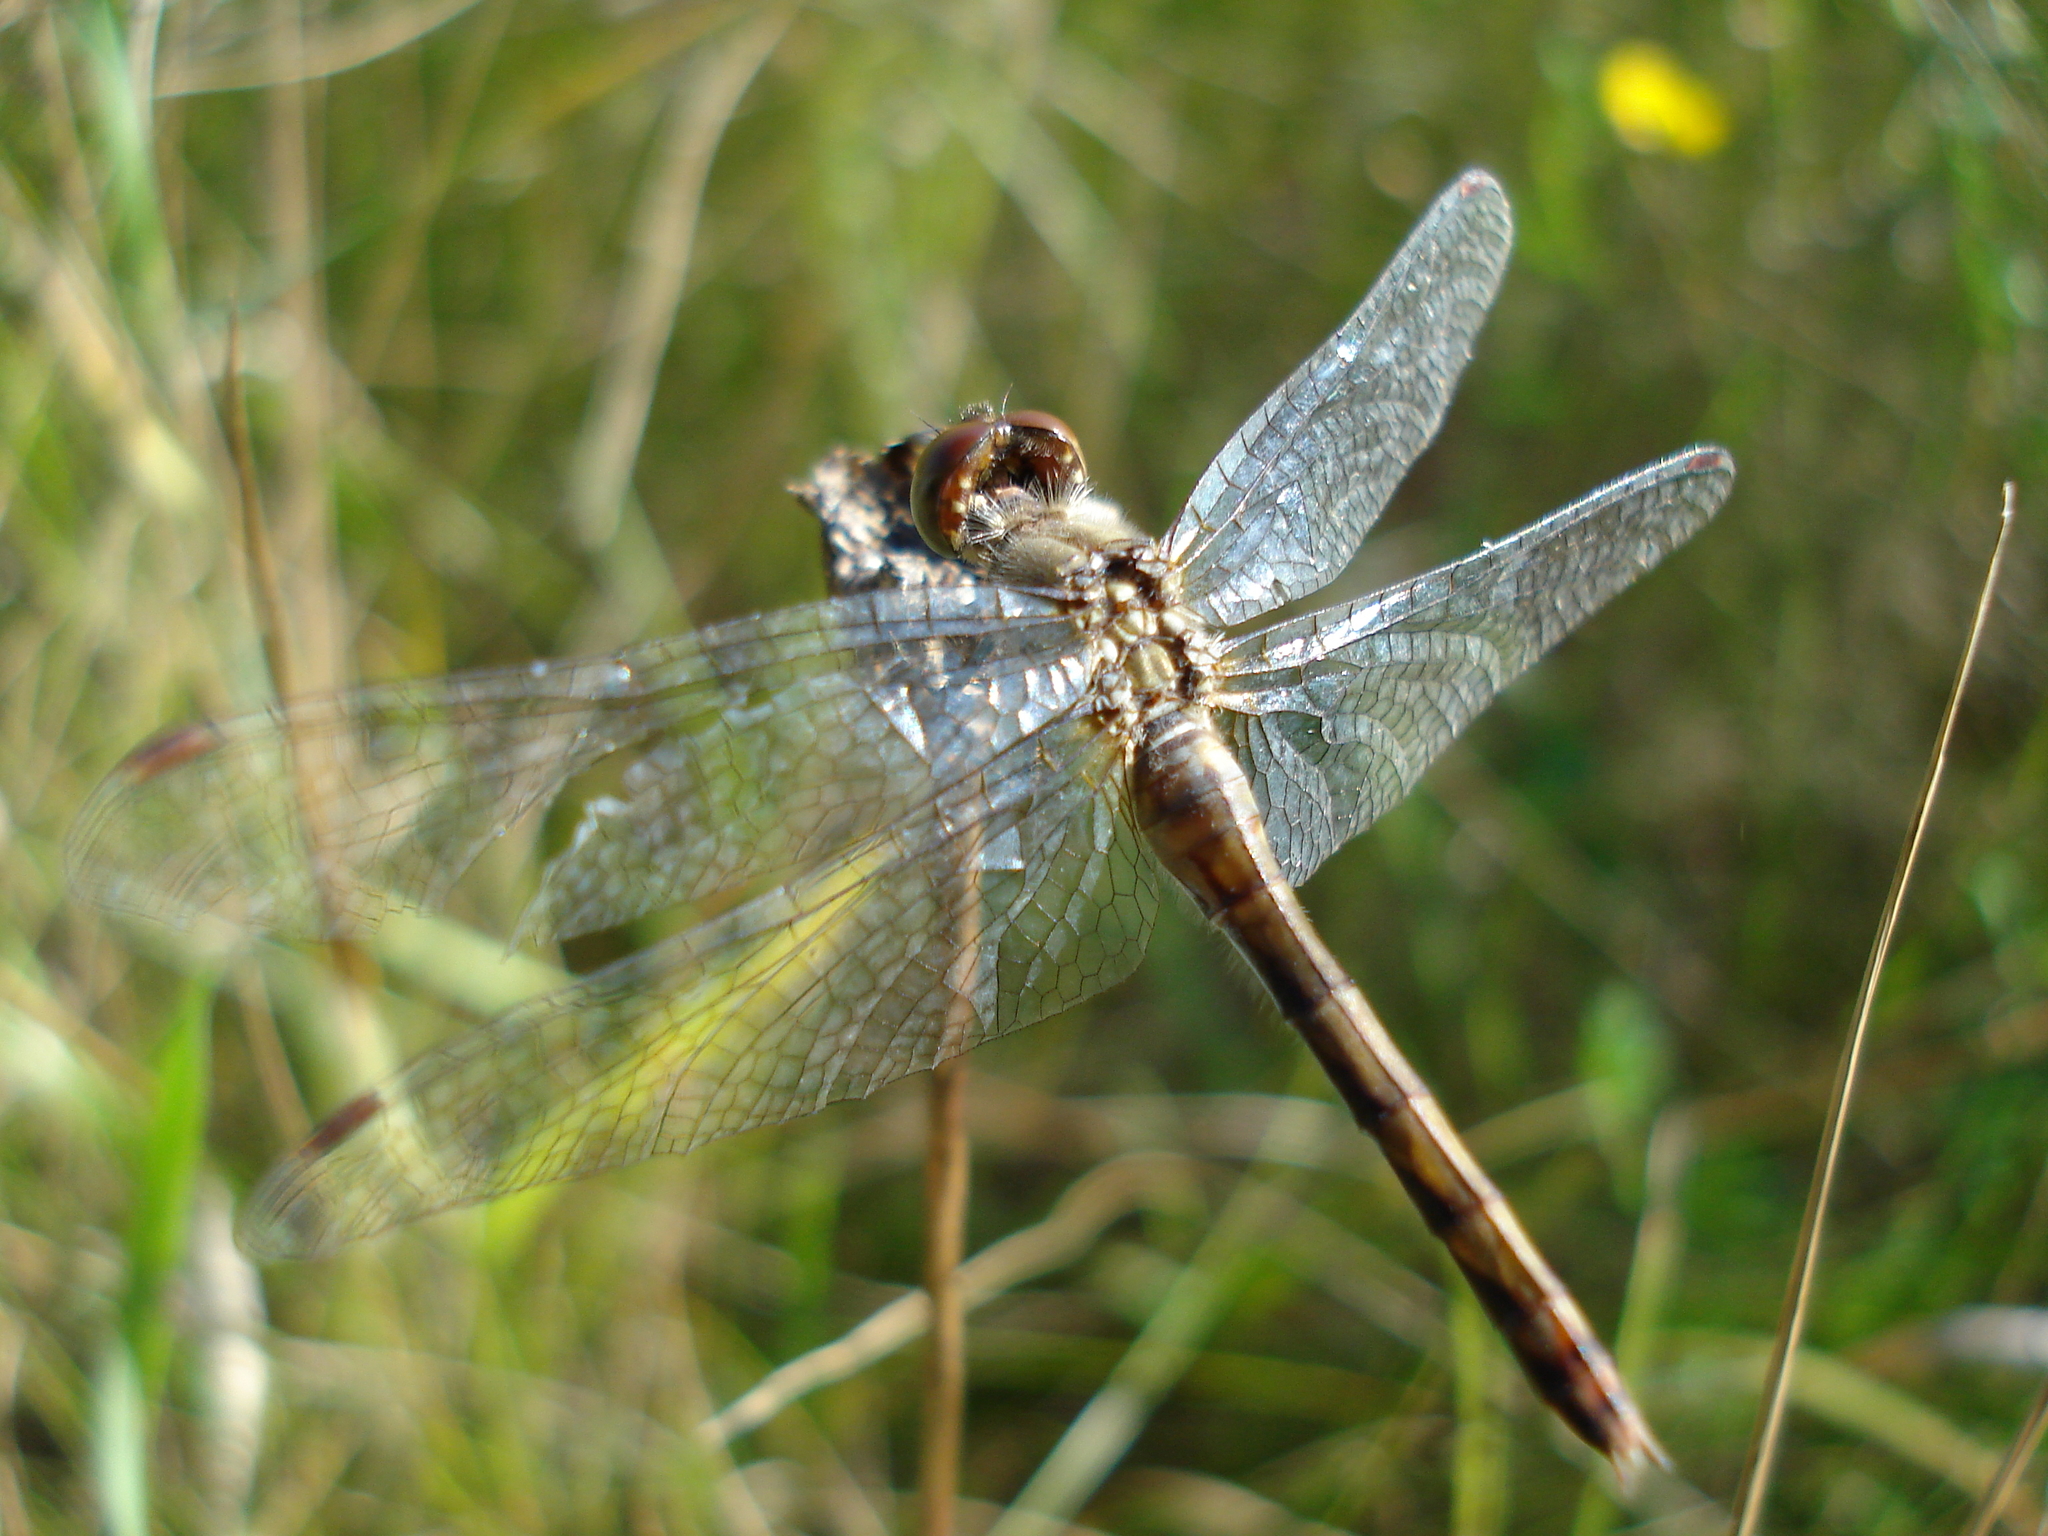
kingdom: Animalia
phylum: Arthropoda
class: Insecta
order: Odonata
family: Libellulidae
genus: Sympetrum
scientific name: Sympetrum
